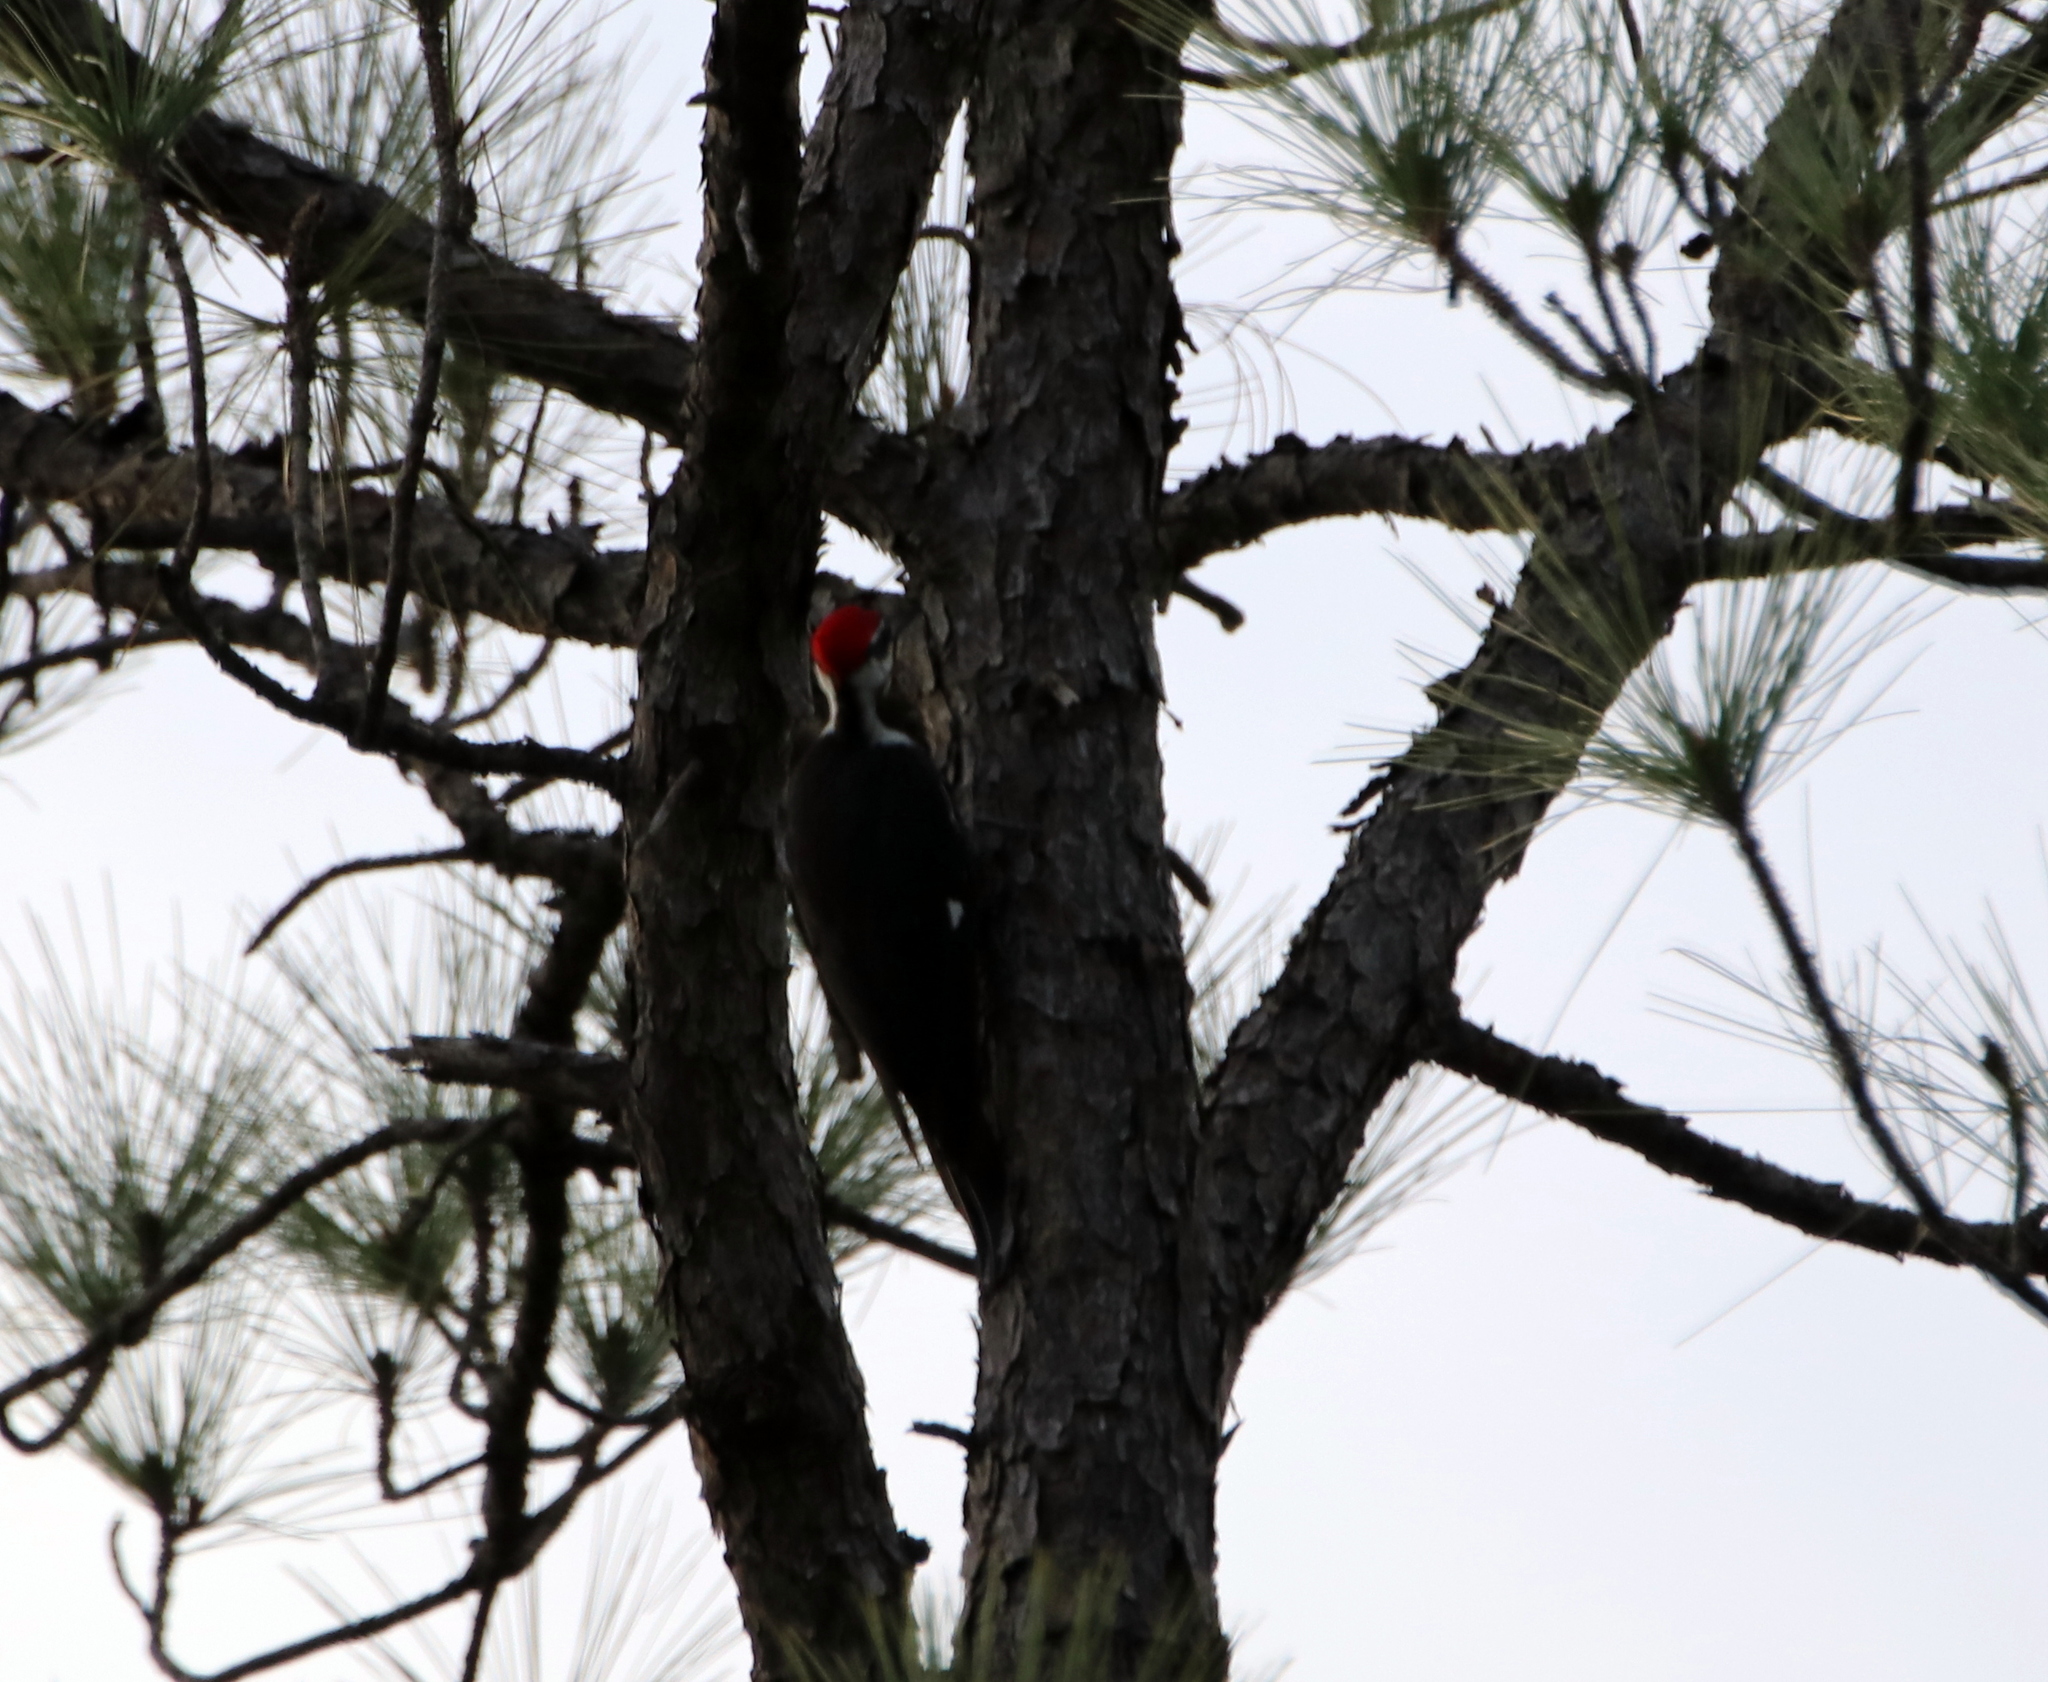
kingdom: Animalia
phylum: Chordata
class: Aves
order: Piciformes
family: Picidae
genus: Dryocopus
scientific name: Dryocopus pileatus
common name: Pileated woodpecker
